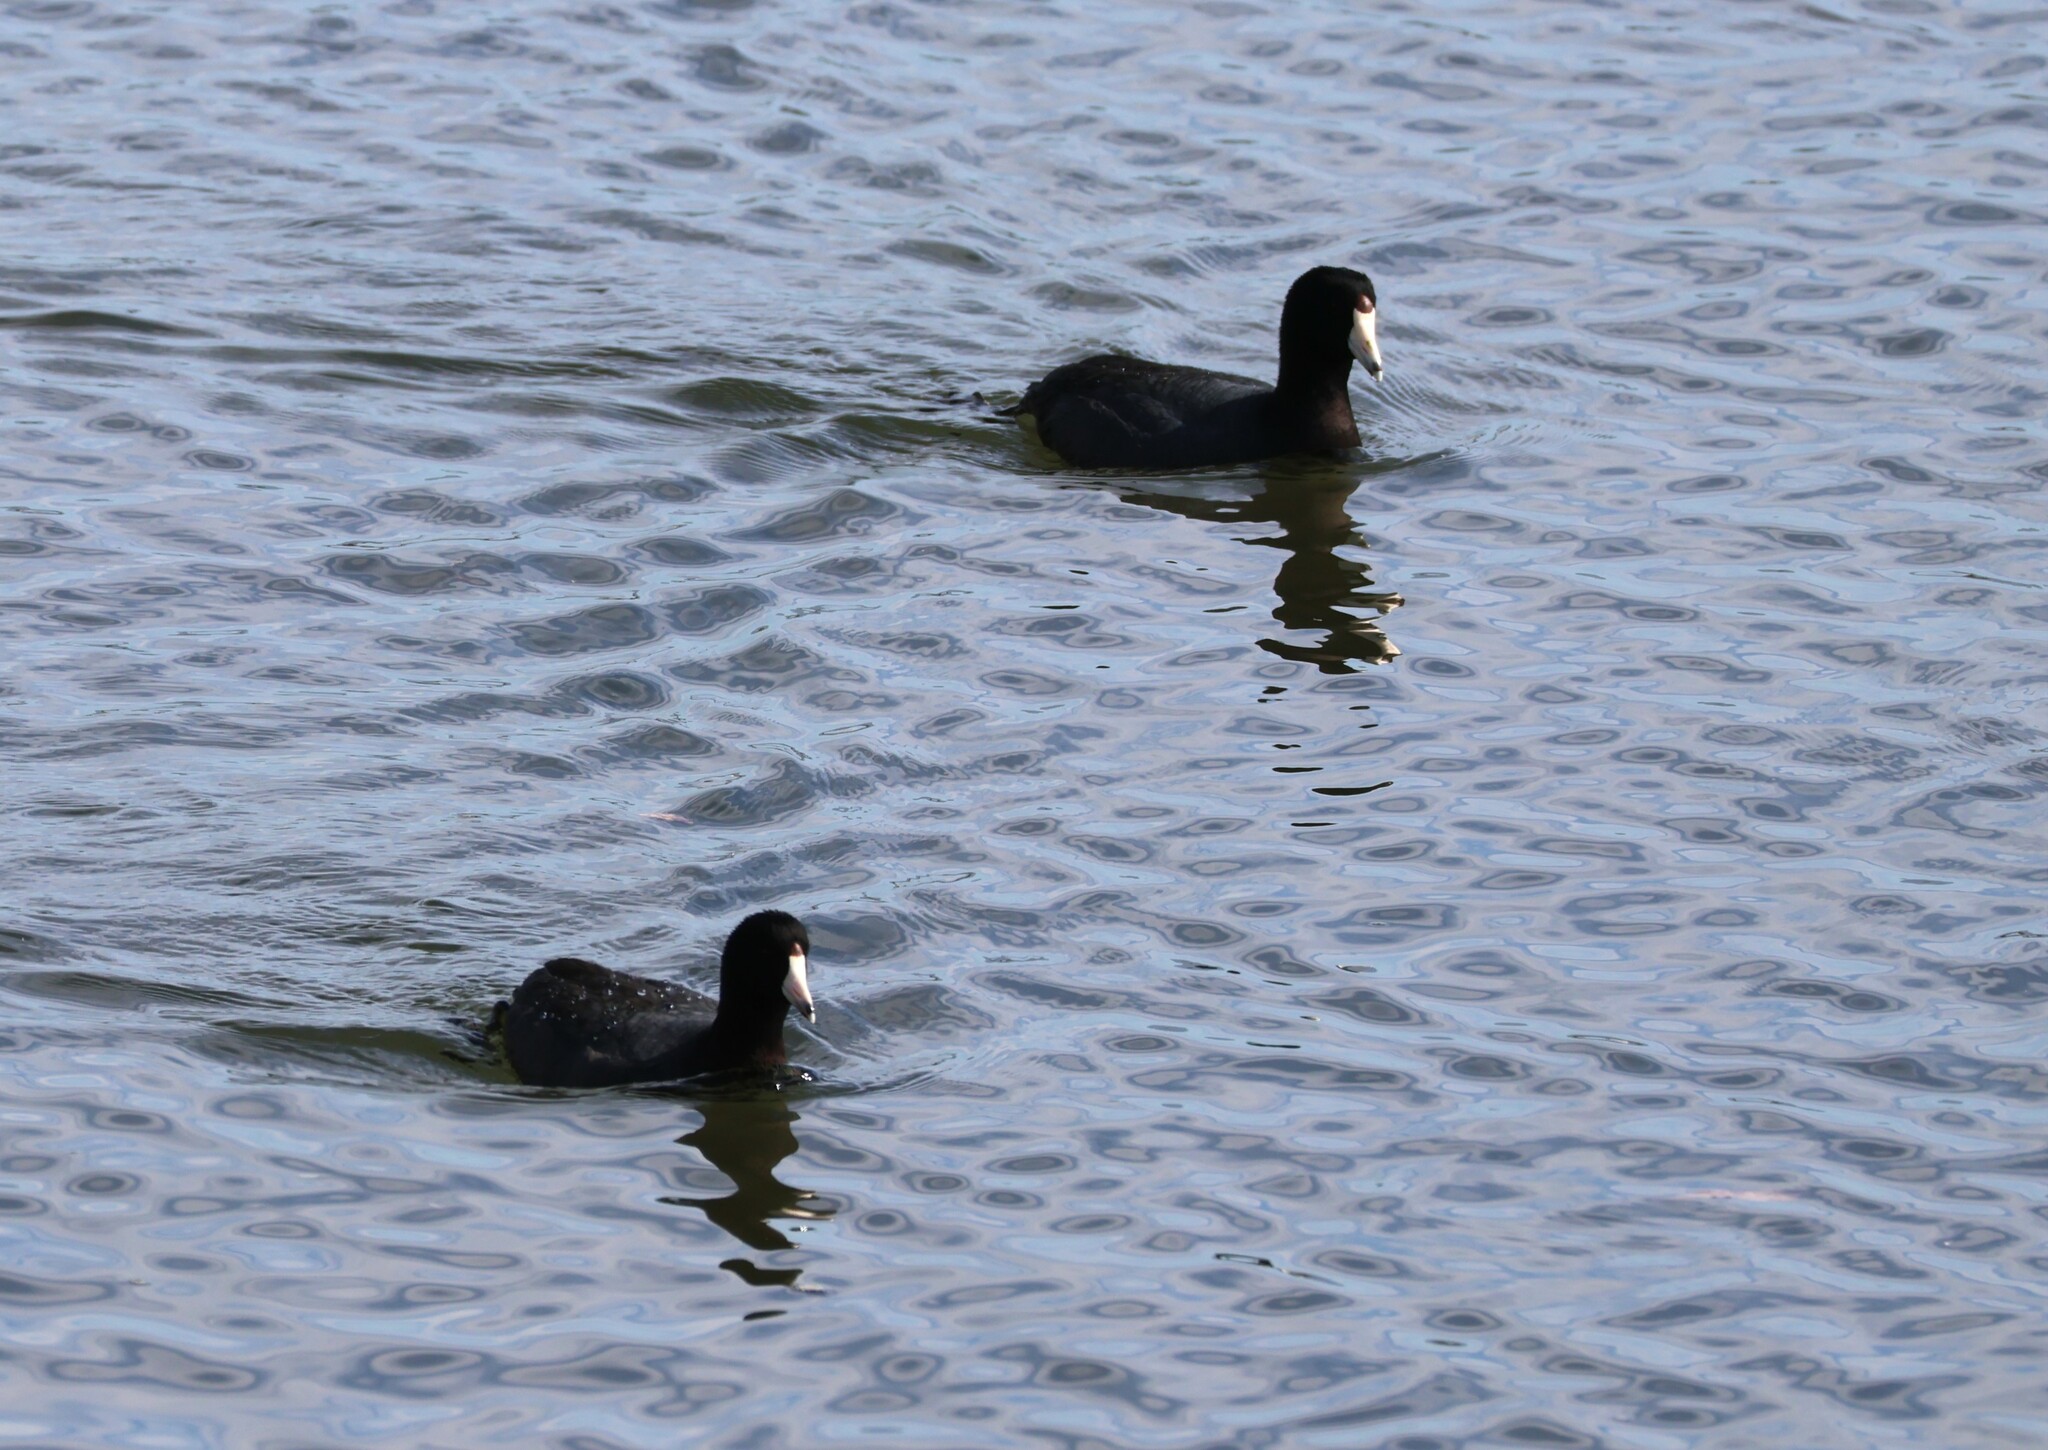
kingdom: Animalia
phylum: Chordata
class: Aves
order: Gruiformes
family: Rallidae
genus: Fulica
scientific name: Fulica americana
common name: American coot
